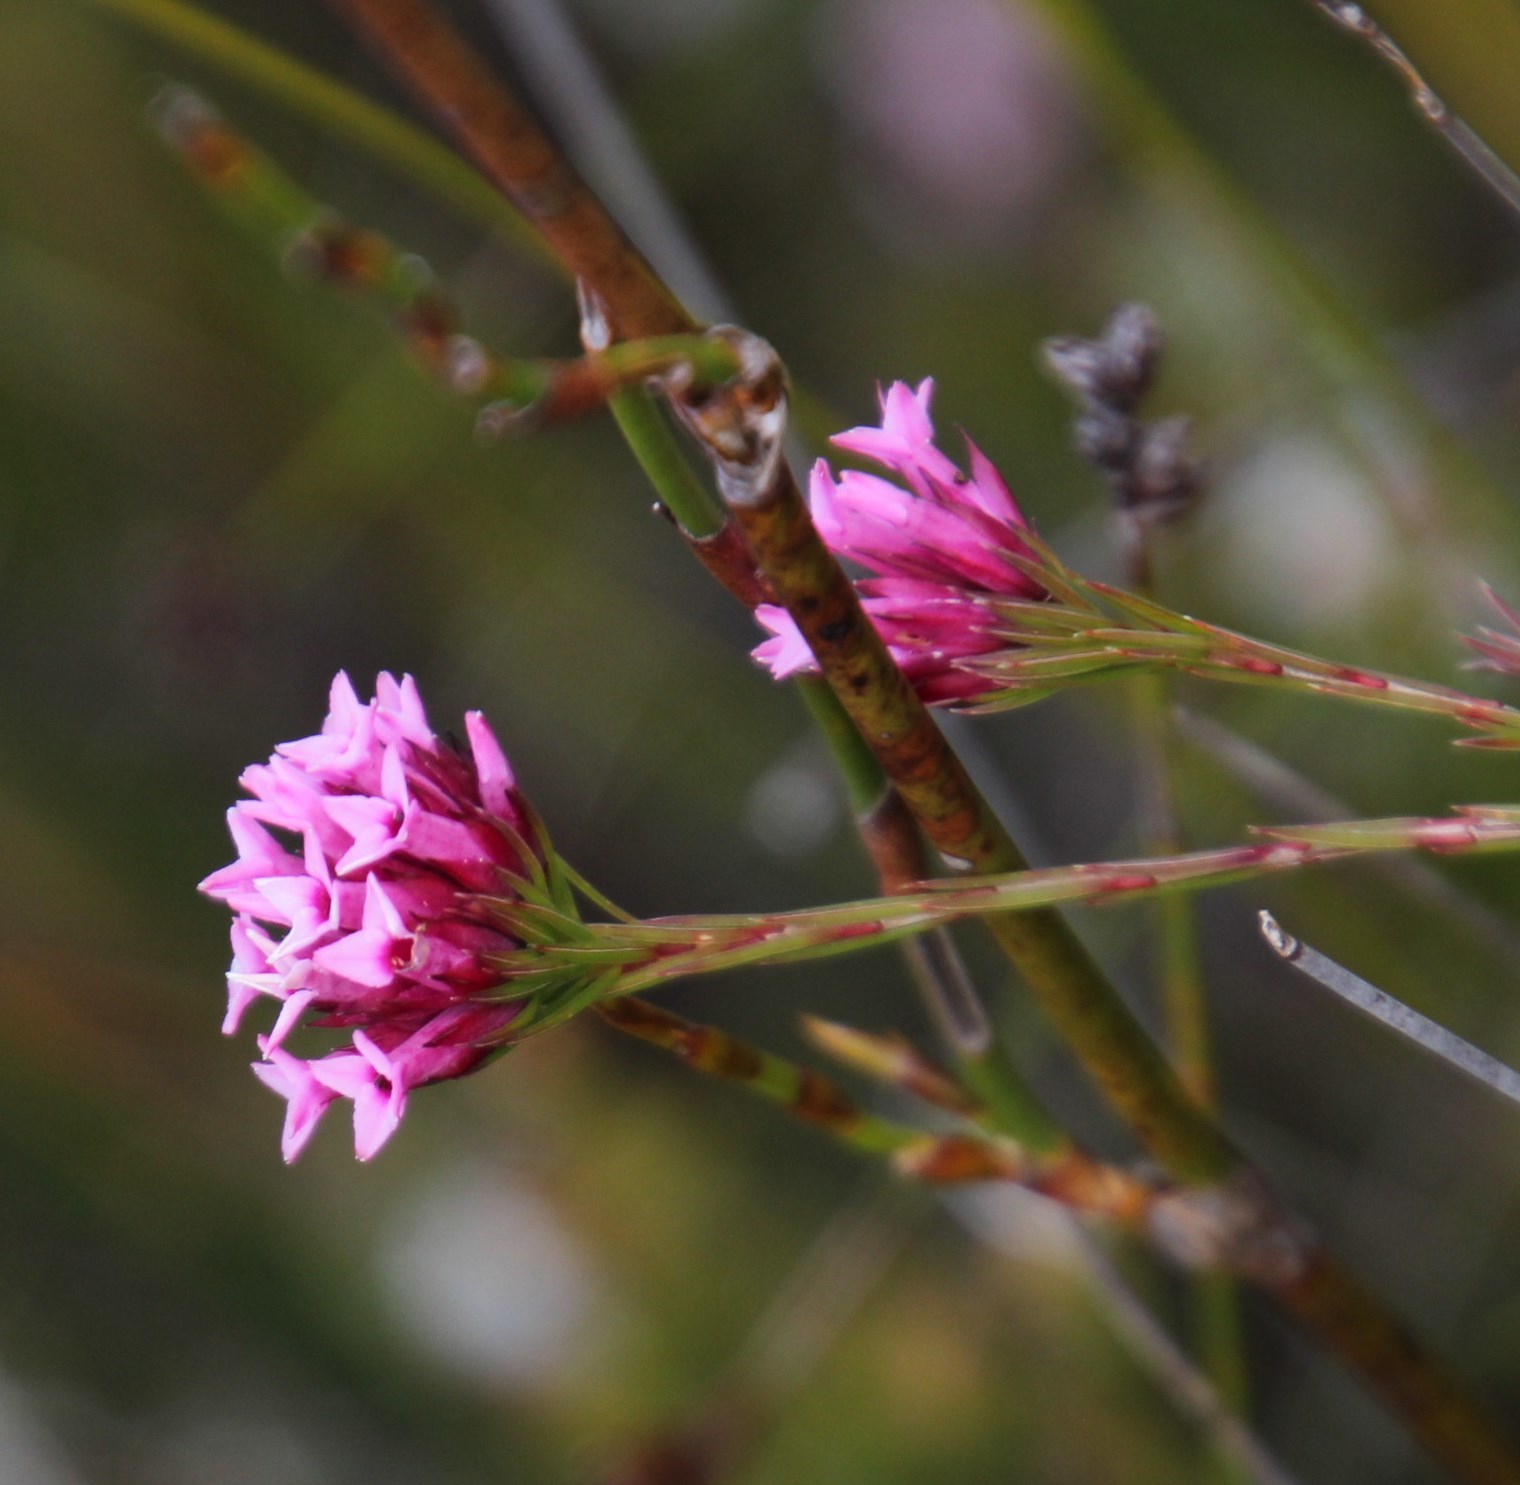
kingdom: Plantae
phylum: Tracheophyta
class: Magnoliopsida
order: Ericales
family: Ericaceae
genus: Erica
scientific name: Erica pycnantha
